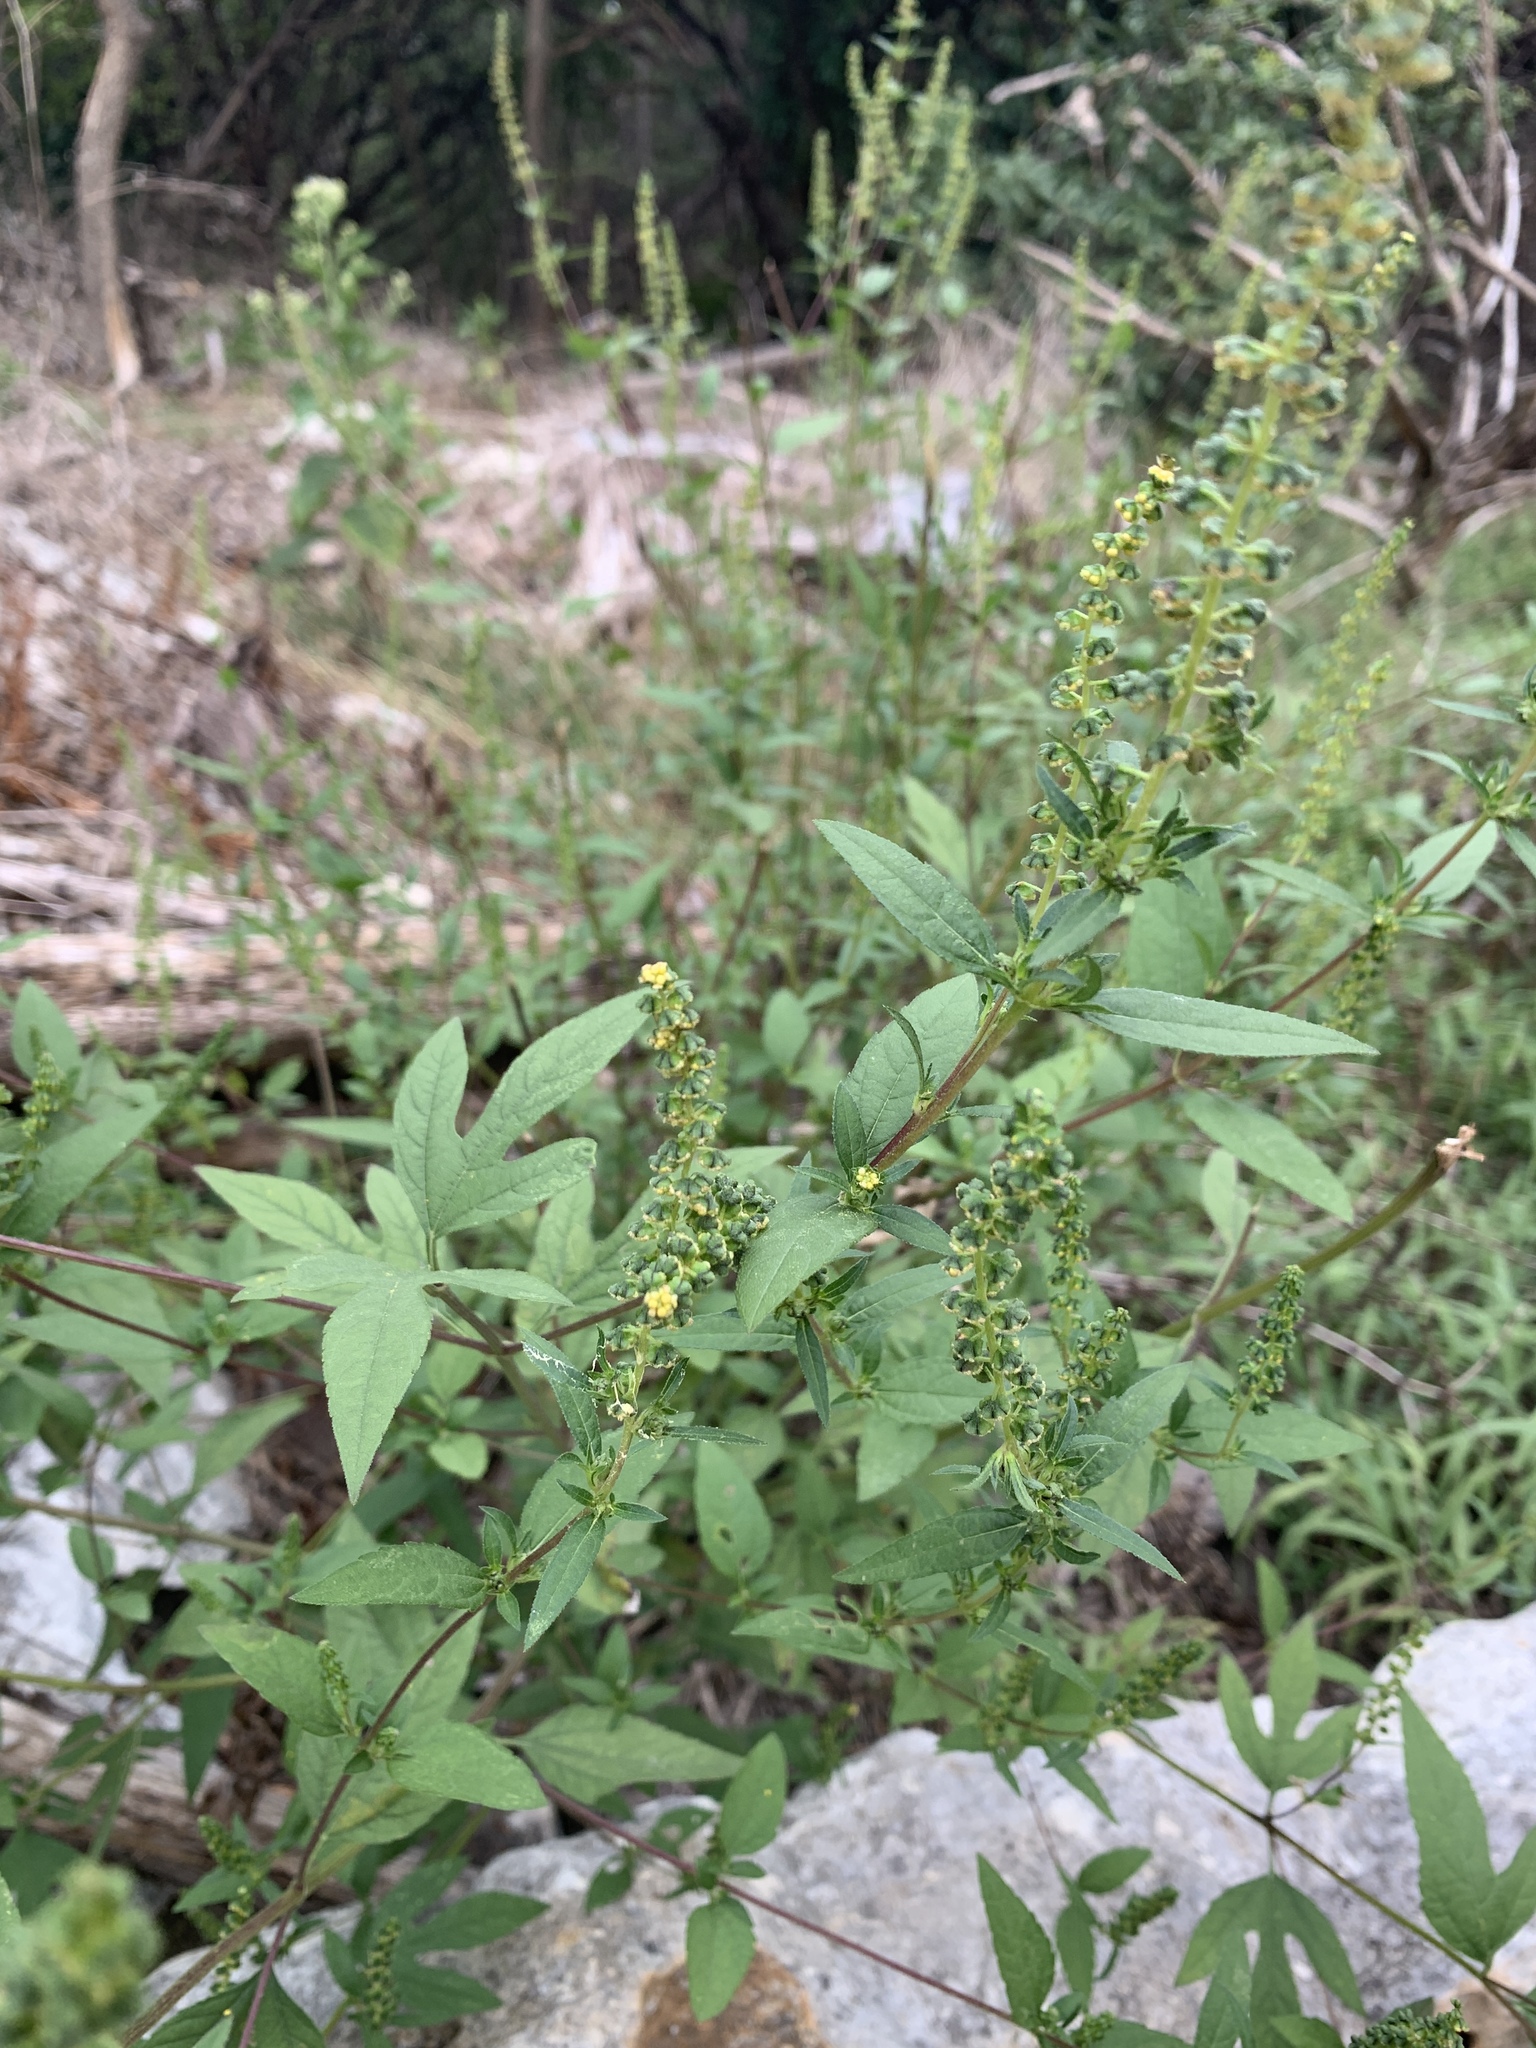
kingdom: Plantae
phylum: Tracheophyta
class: Magnoliopsida
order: Asterales
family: Asteraceae
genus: Ambrosia
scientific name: Ambrosia trifida
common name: Giant ragweed
